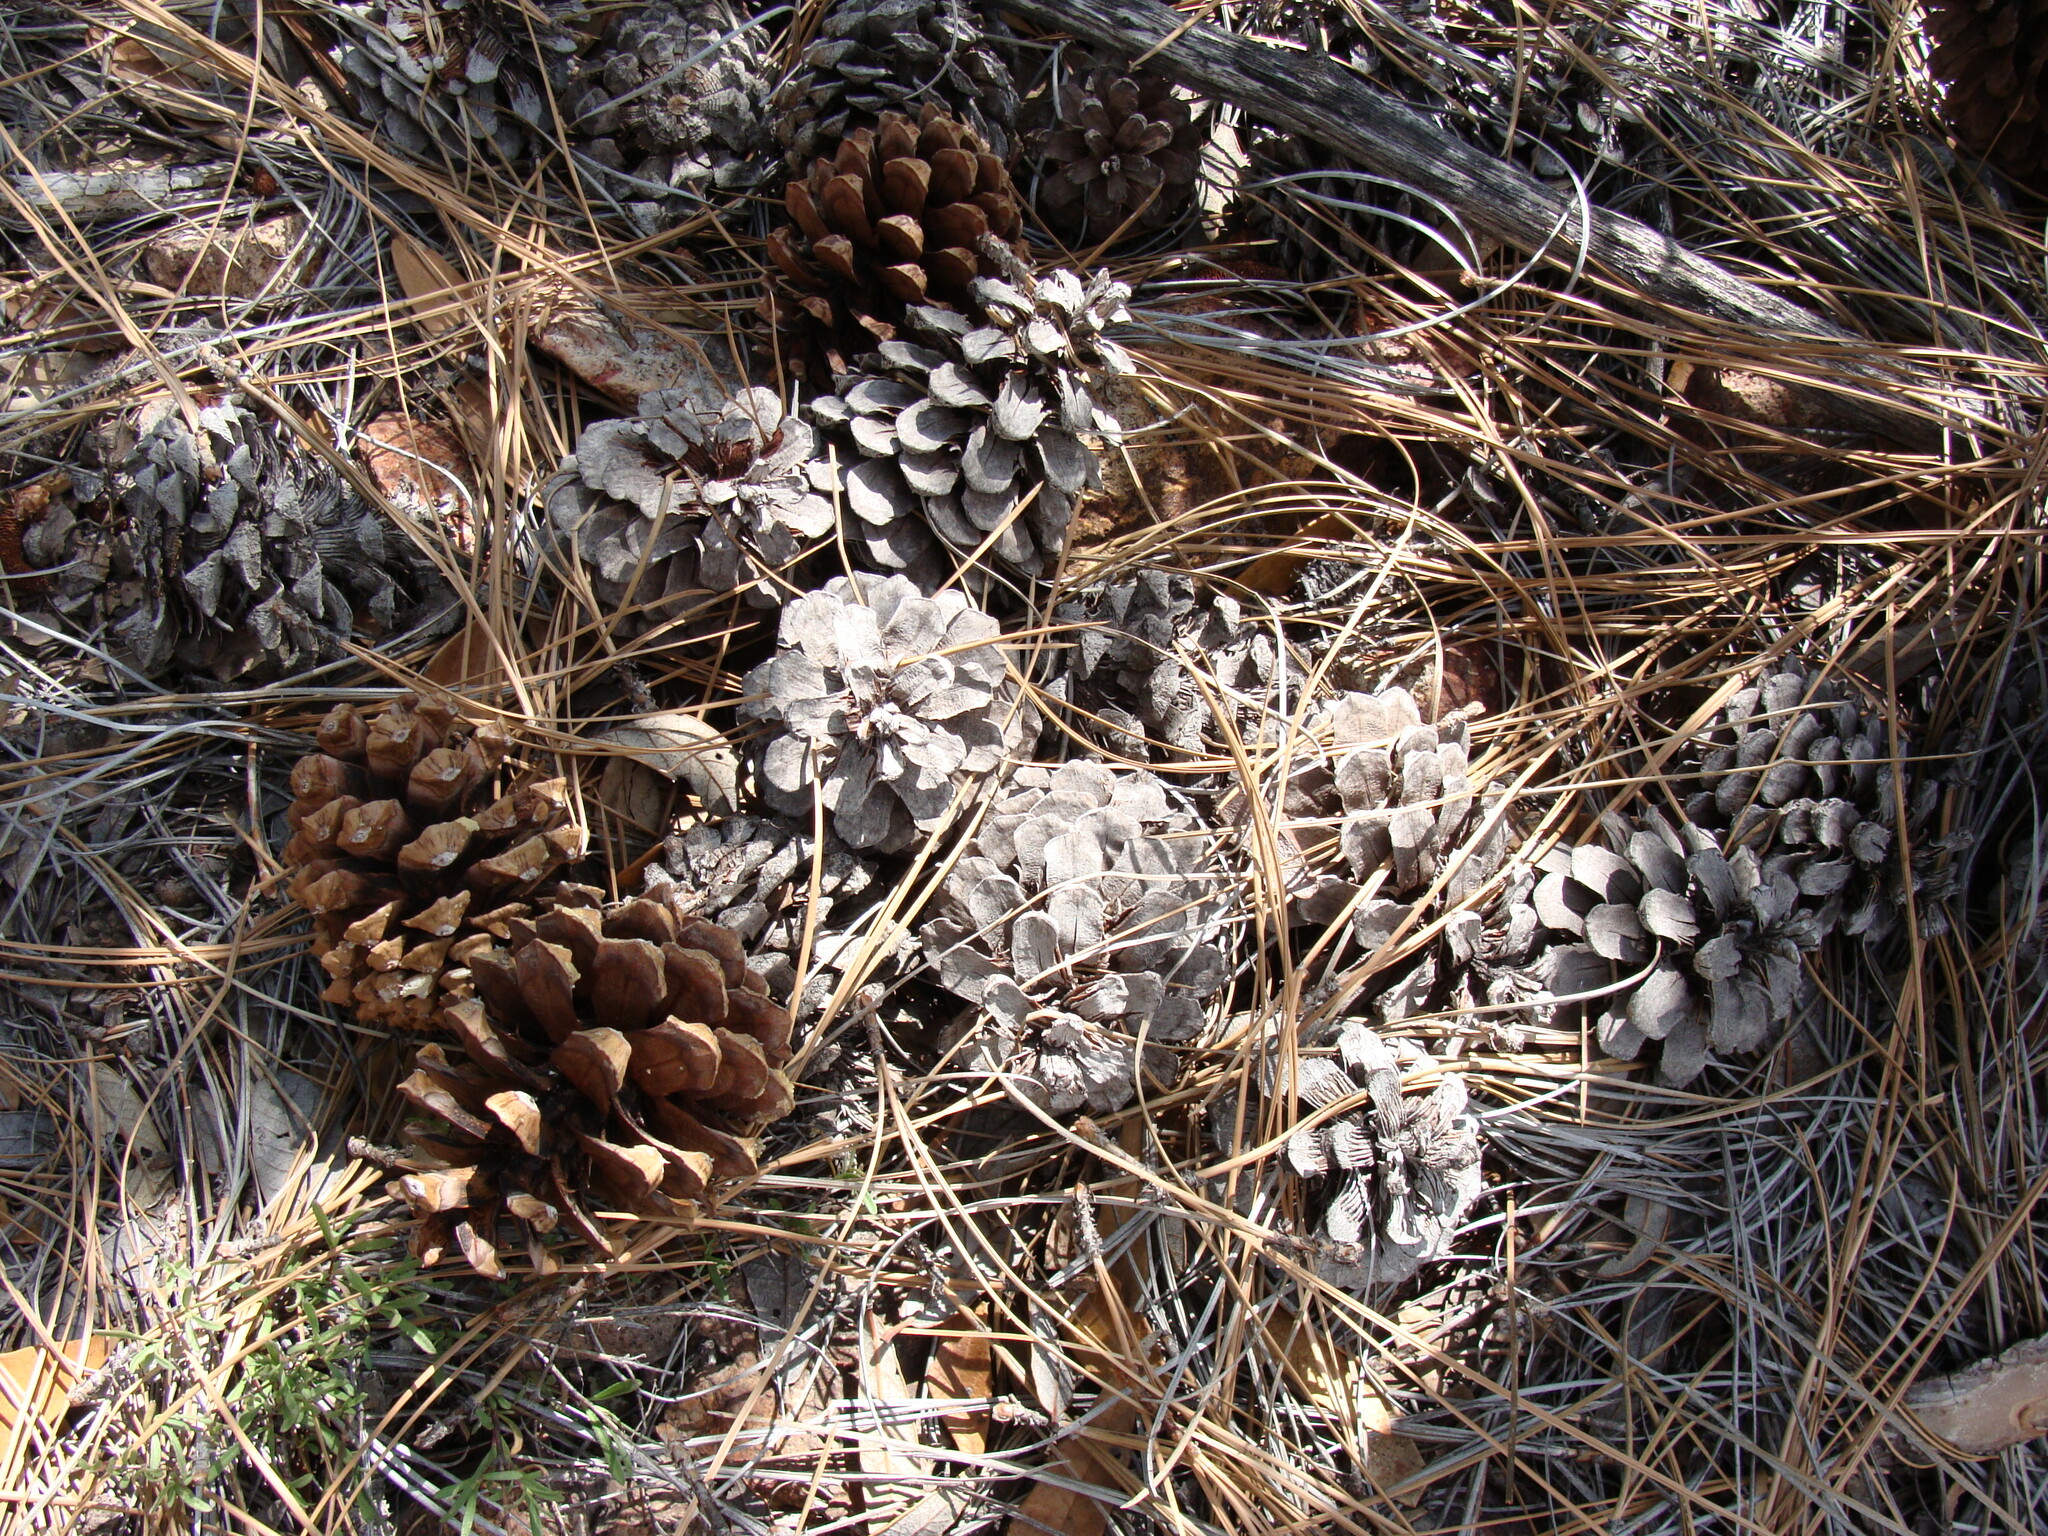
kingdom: Plantae
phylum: Tracheophyta
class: Pinopsida
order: Pinales
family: Pinaceae
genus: Pinus
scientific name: Pinus engelmannii
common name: Apache pine
